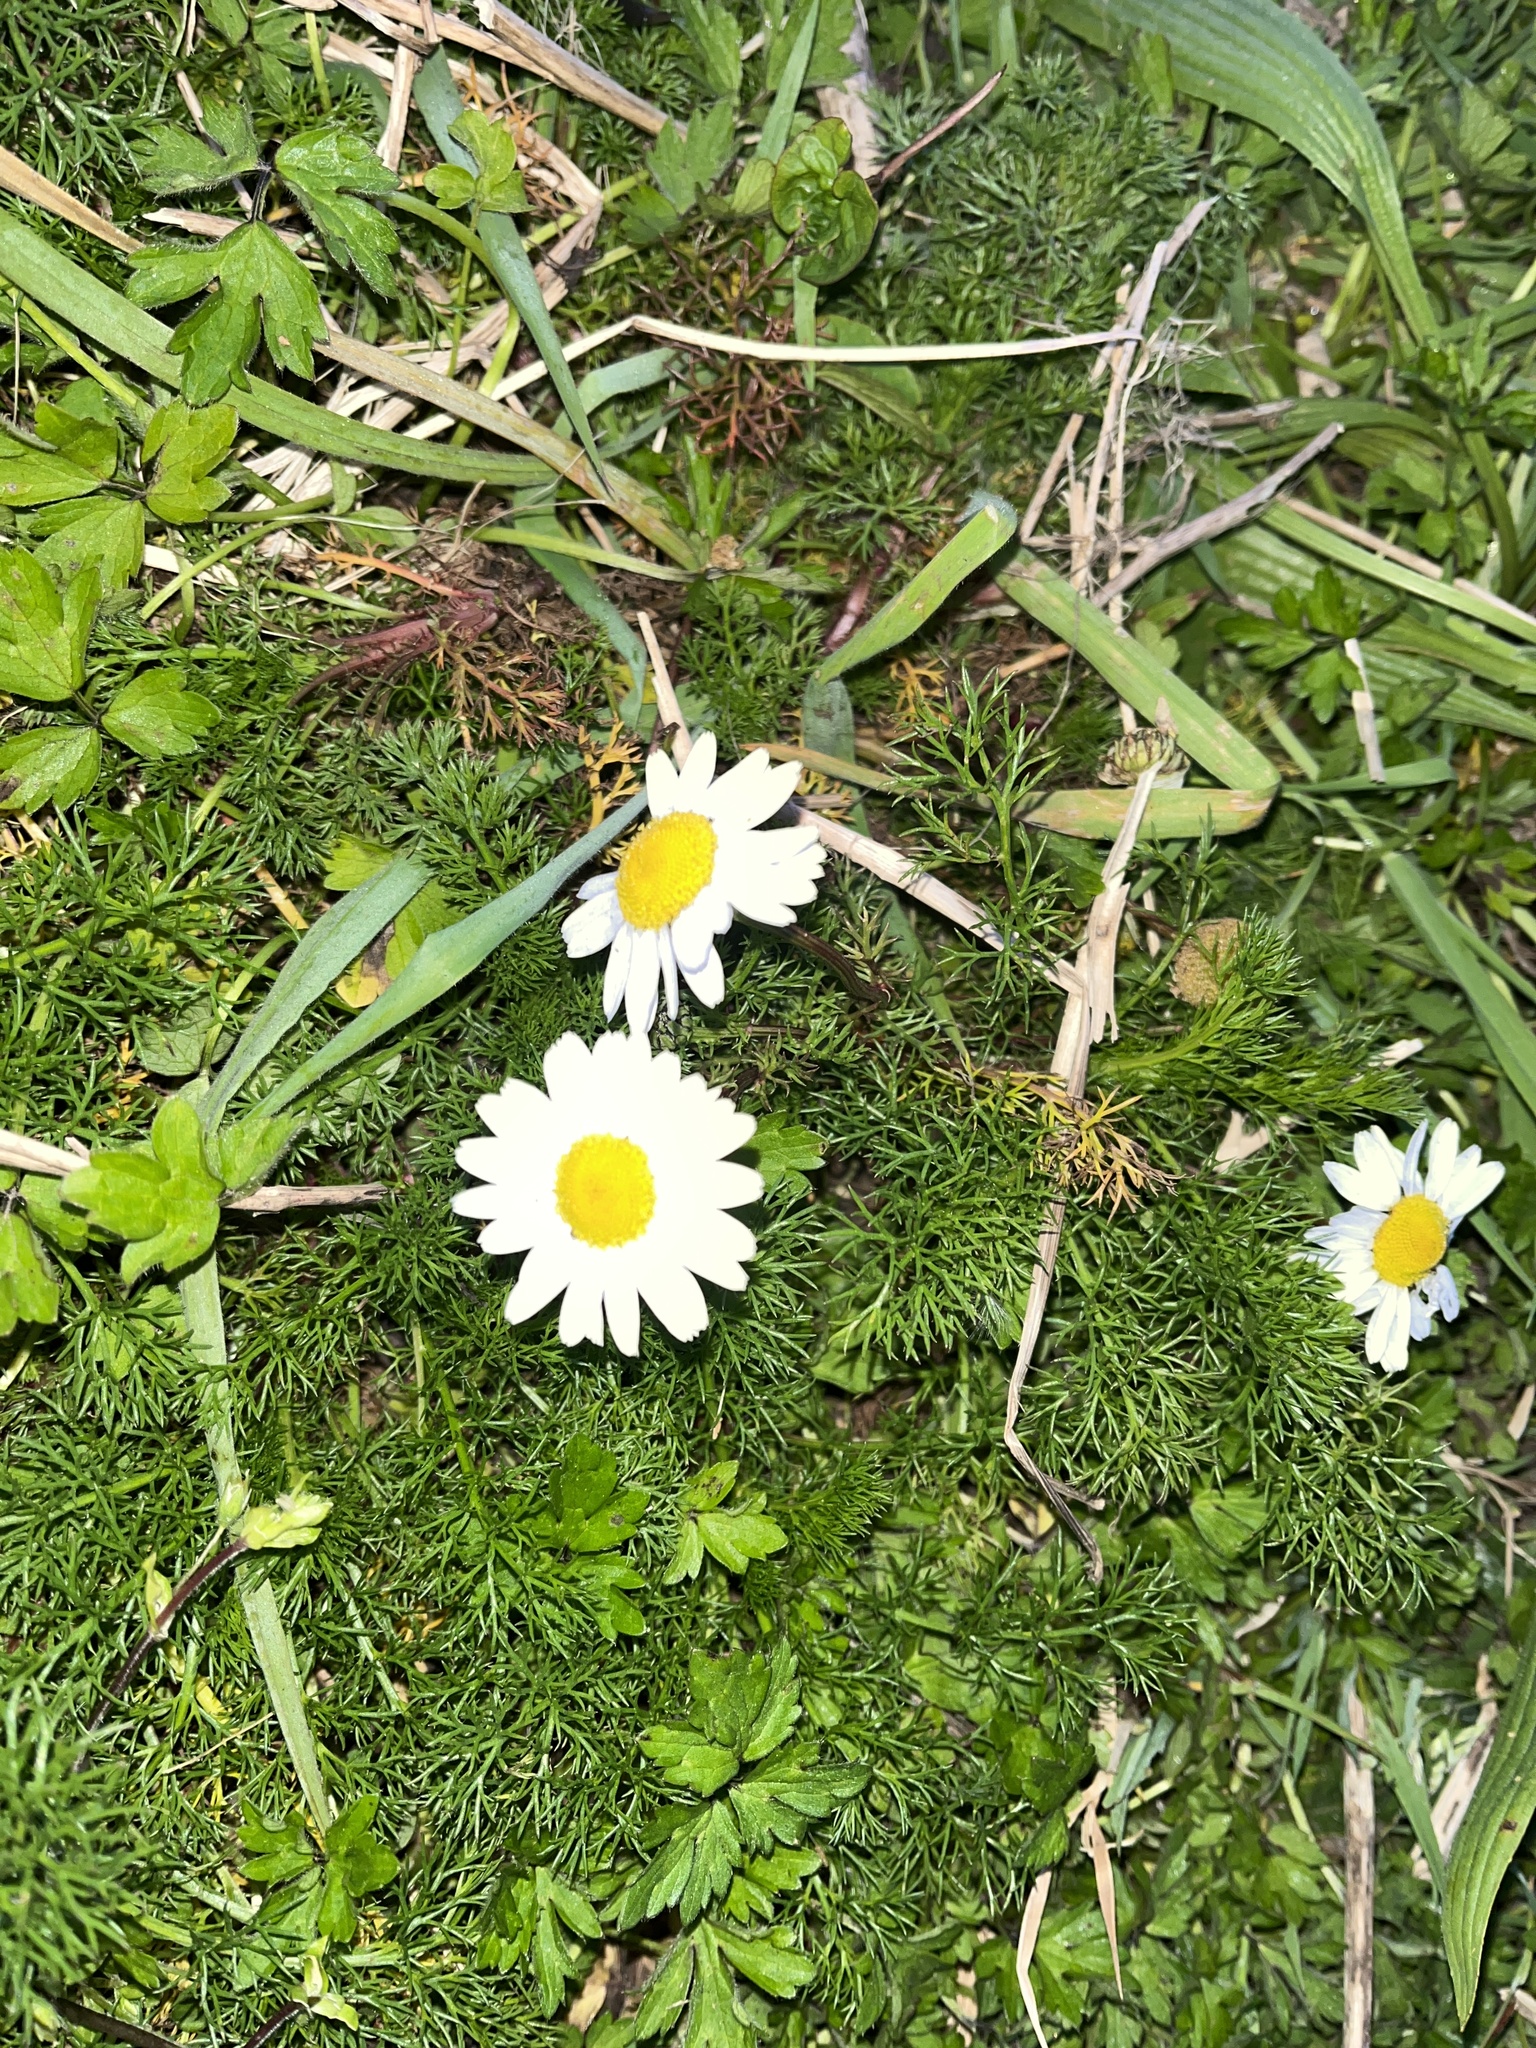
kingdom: Plantae
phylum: Tracheophyta
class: Magnoliopsida
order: Asterales
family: Asteraceae
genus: Tripleurospermum
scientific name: Tripleurospermum inodorum
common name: Scentless mayweed
